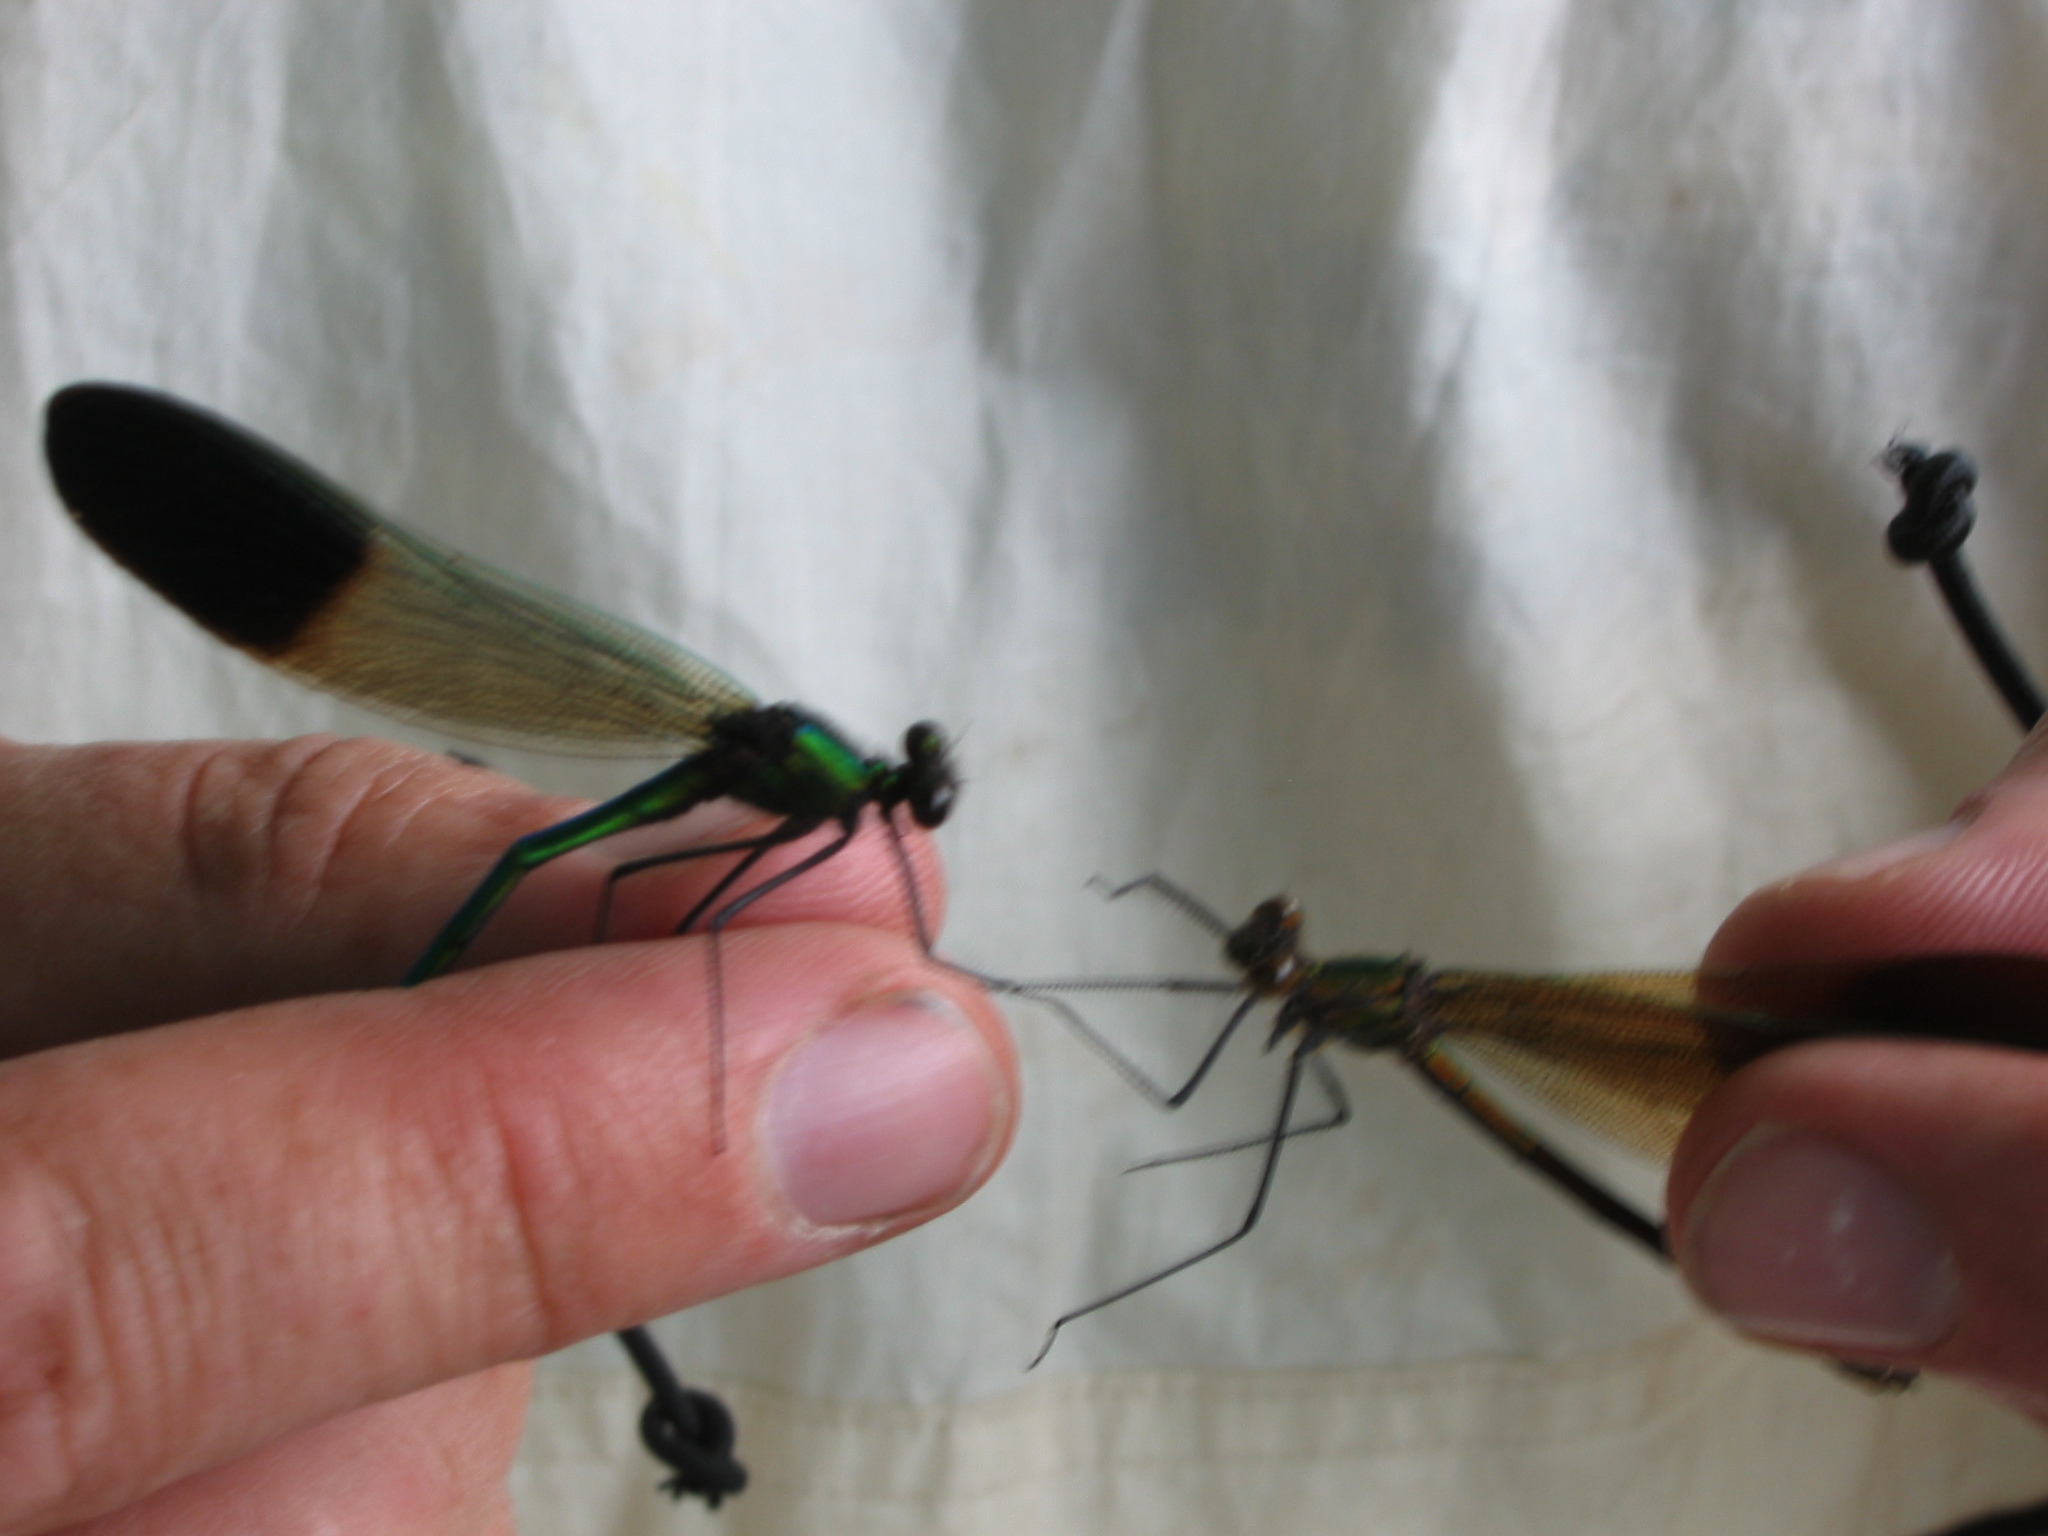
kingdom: Animalia
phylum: Arthropoda
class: Insecta
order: Odonata
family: Calopterygidae
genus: Calopteryx
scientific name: Calopteryx aequabilis
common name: River jewelwing
